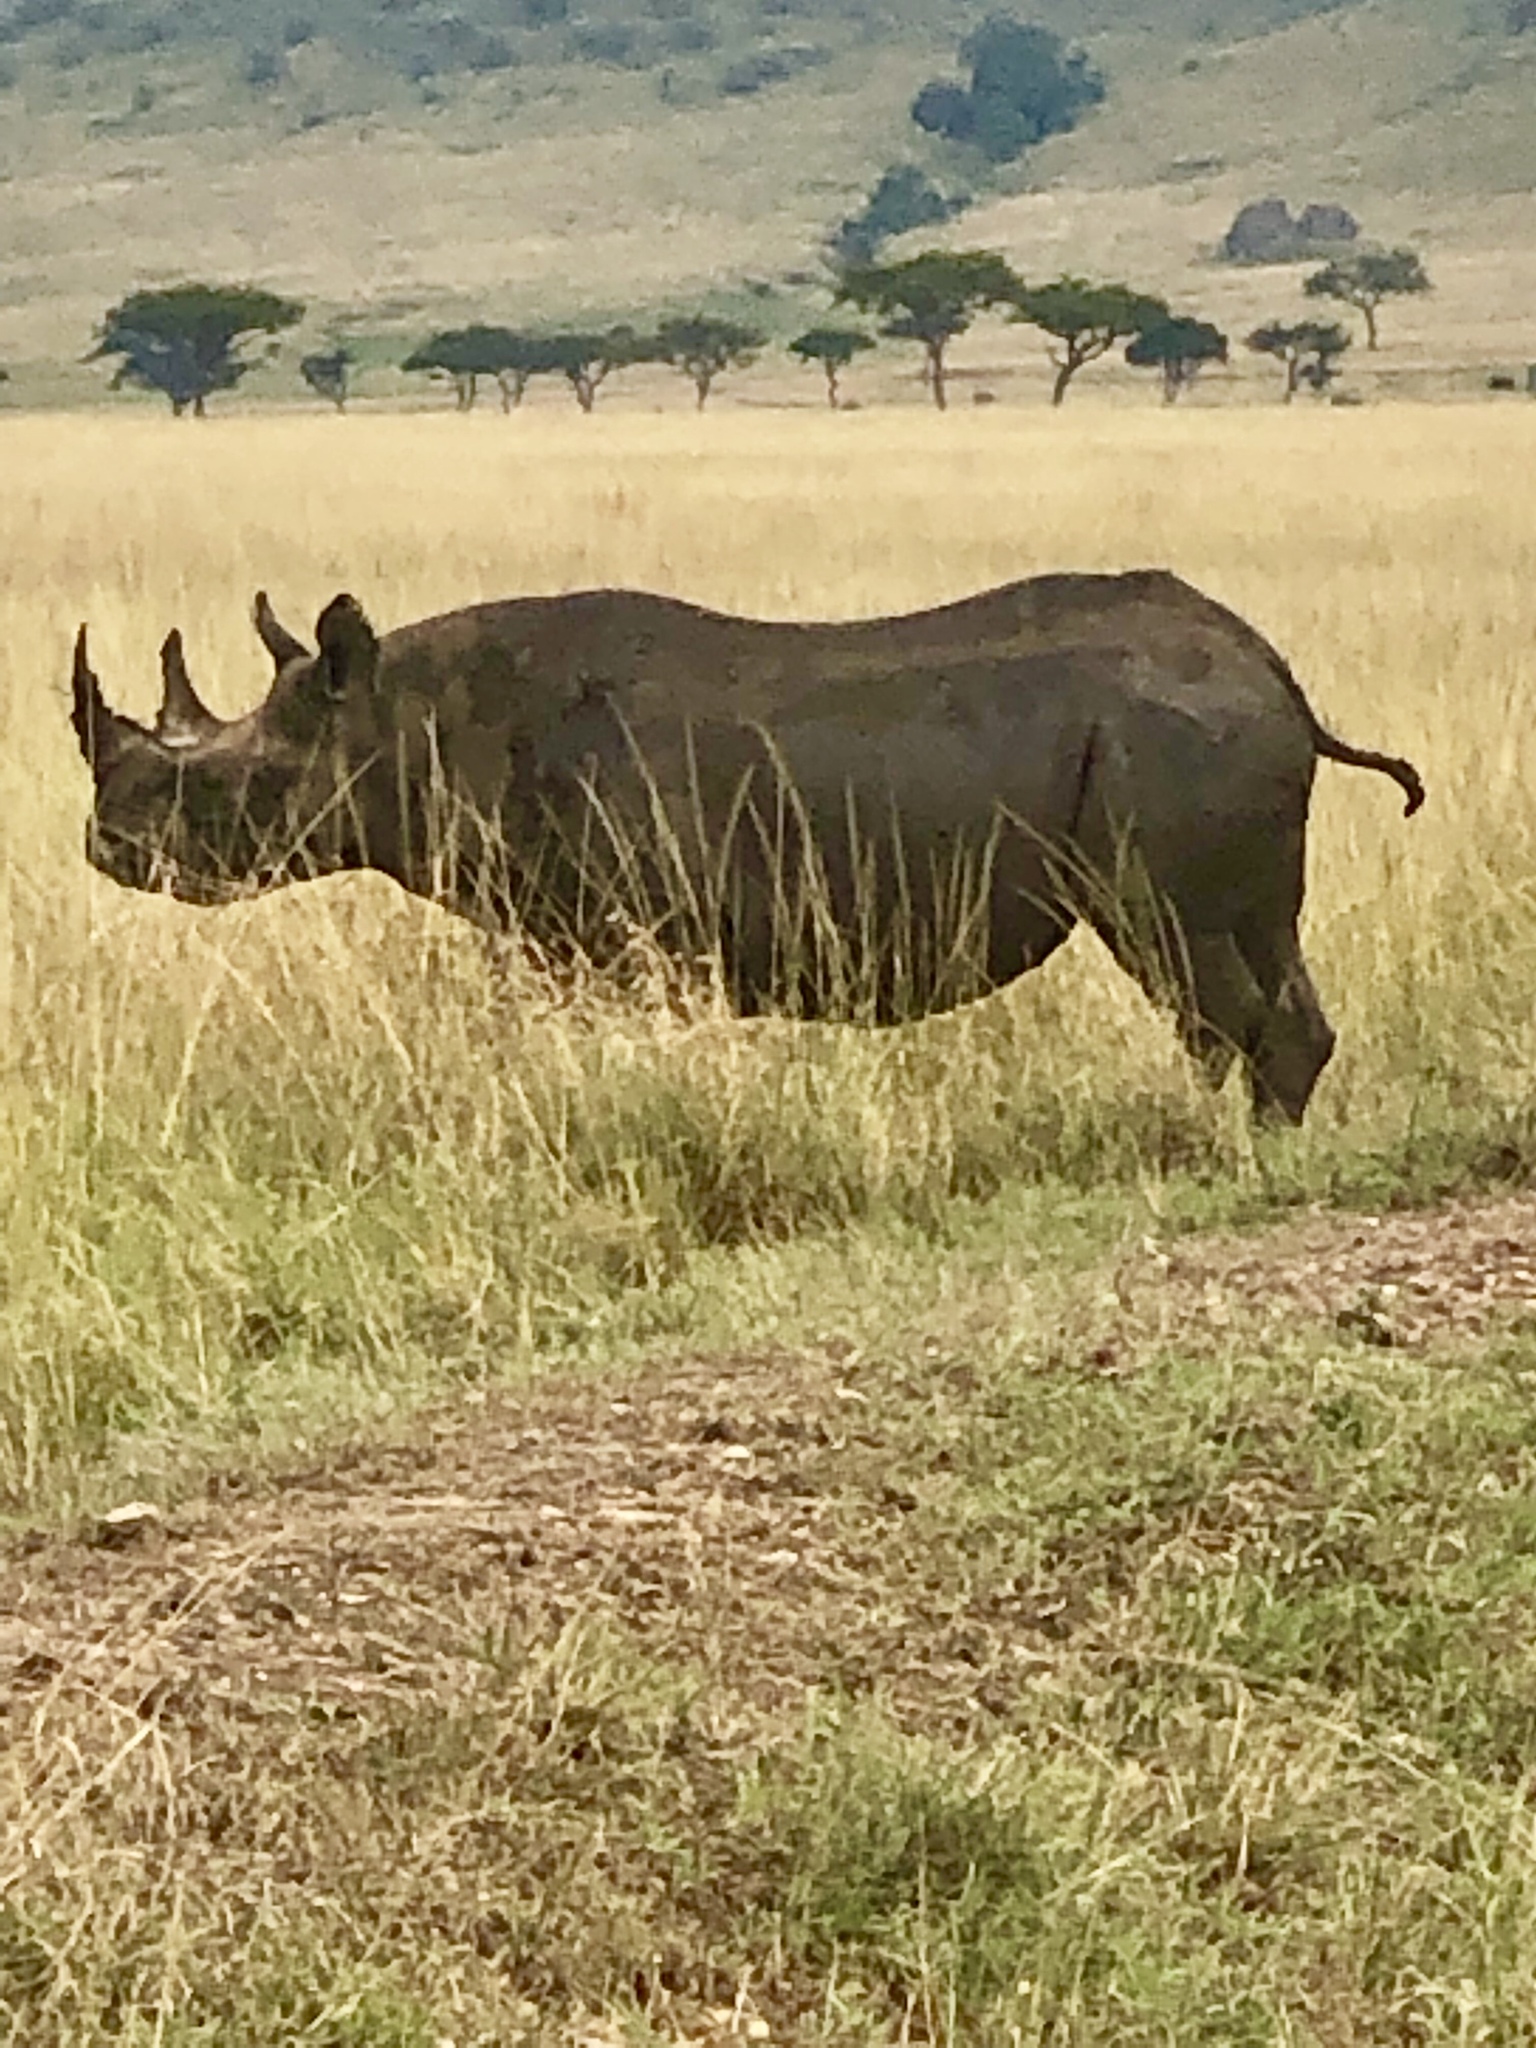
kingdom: Animalia
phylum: Chordata
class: Mammalia
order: Perissodactyla
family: Rhinocerotidae
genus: Diceros
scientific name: Diceros bicornis
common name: Black rhinoceros
